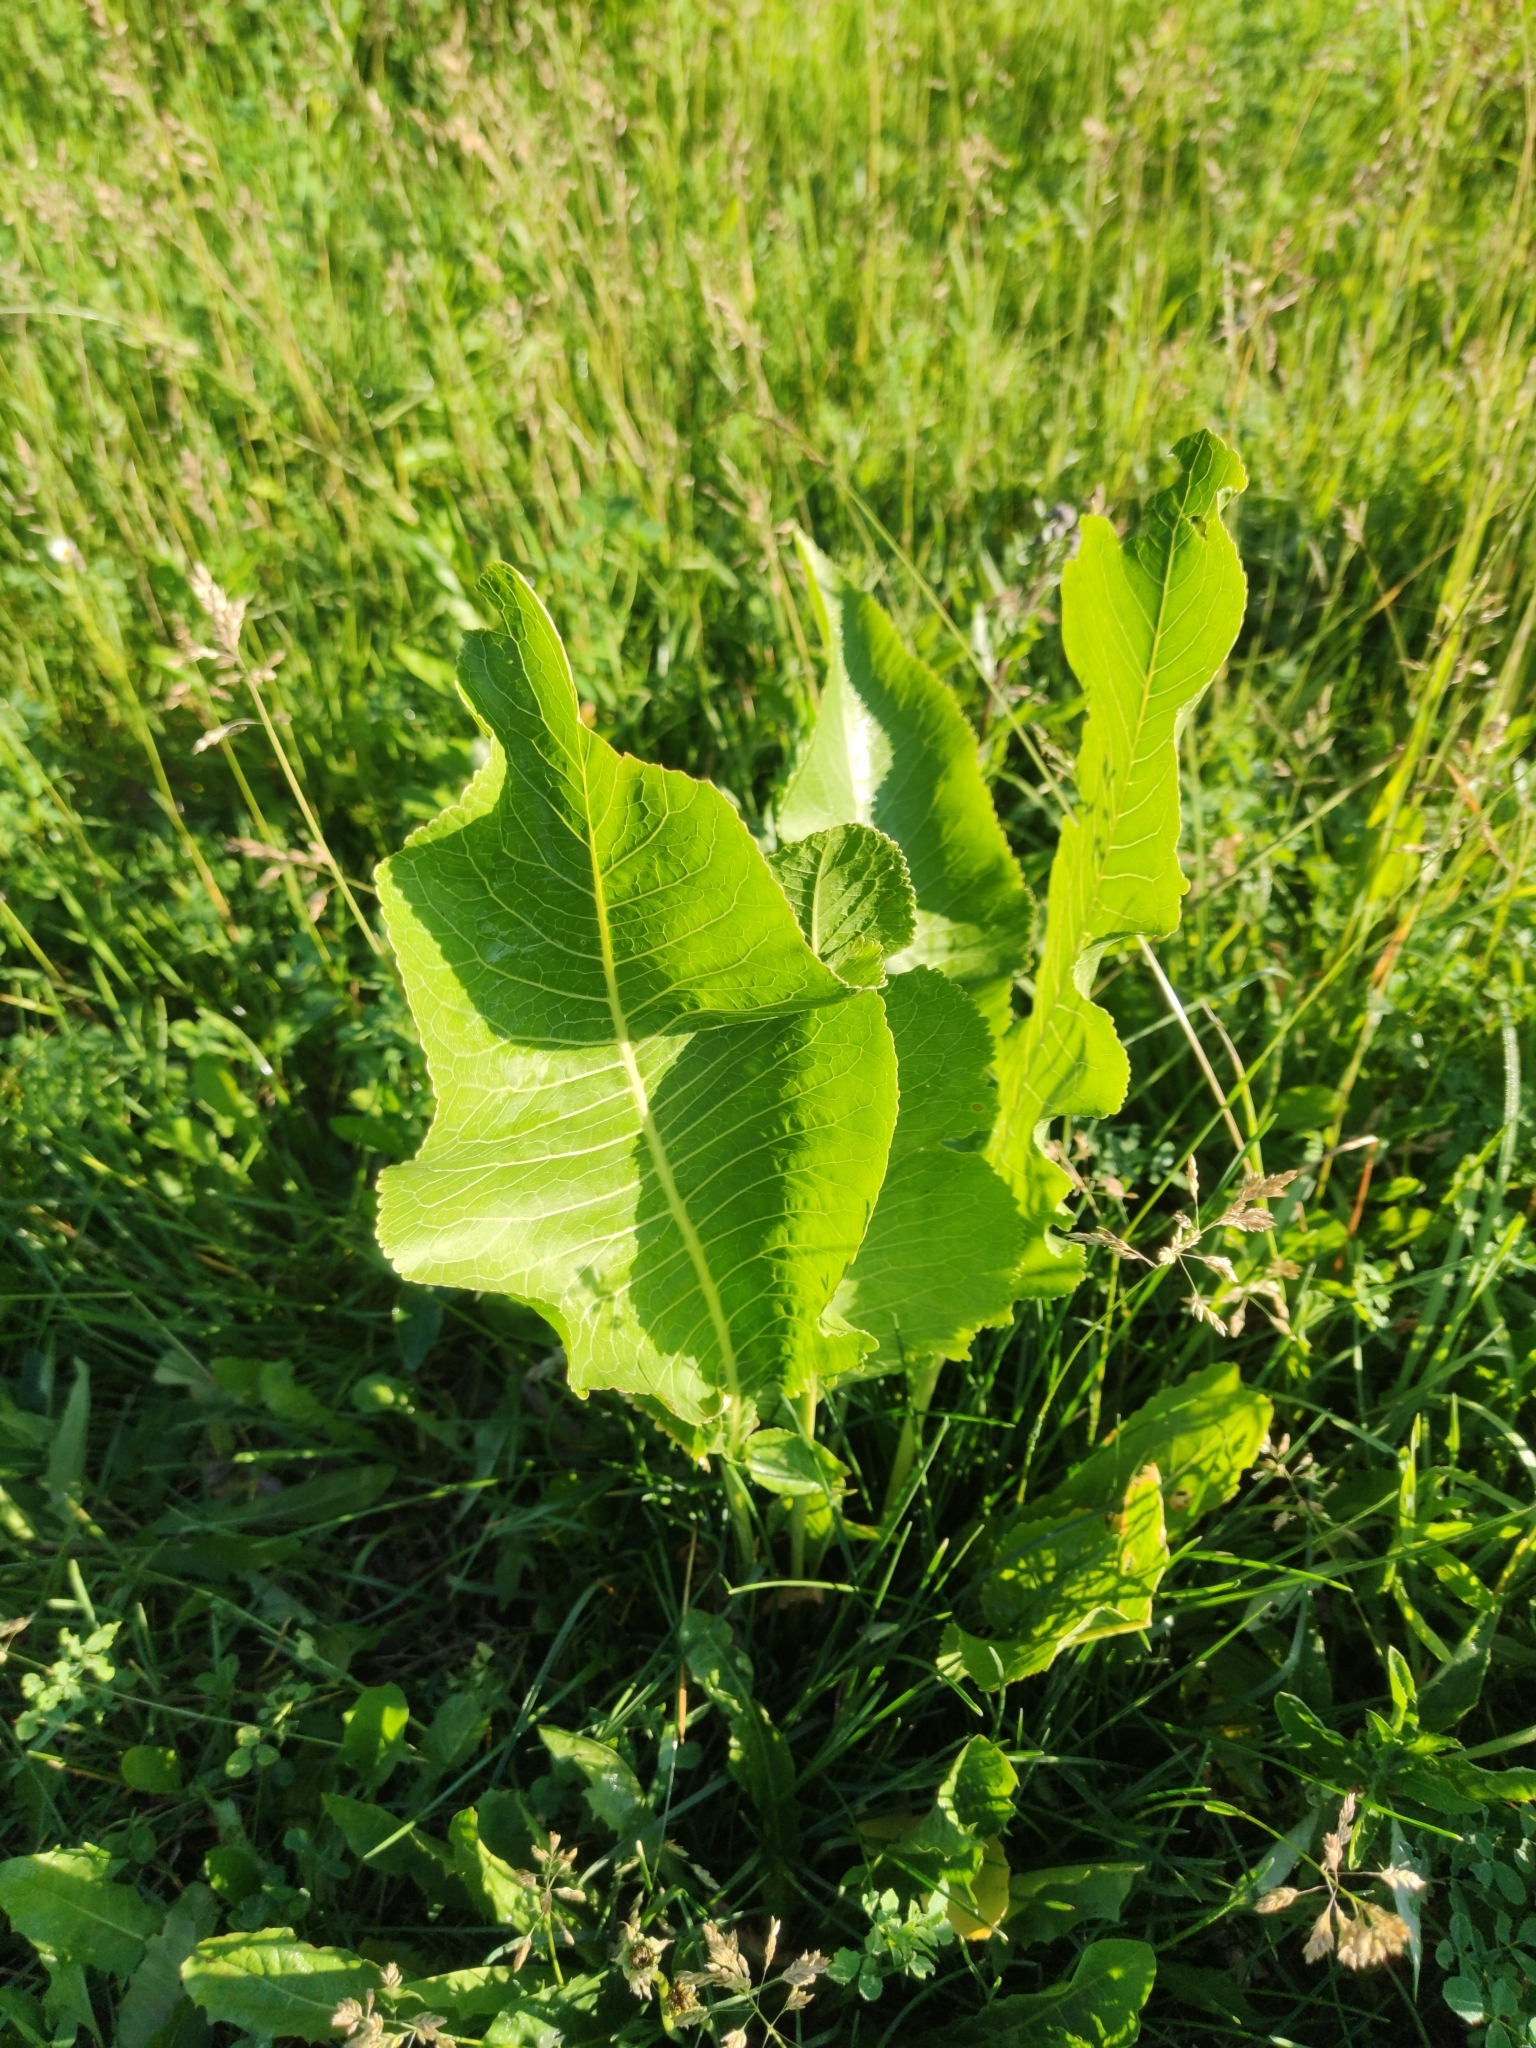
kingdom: Plantae
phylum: Tracheophyta
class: Magnoliopsida
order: Brassicales
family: Brassicaceae
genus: Armoracia
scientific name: Armoracia rusticana
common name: Horseradish
